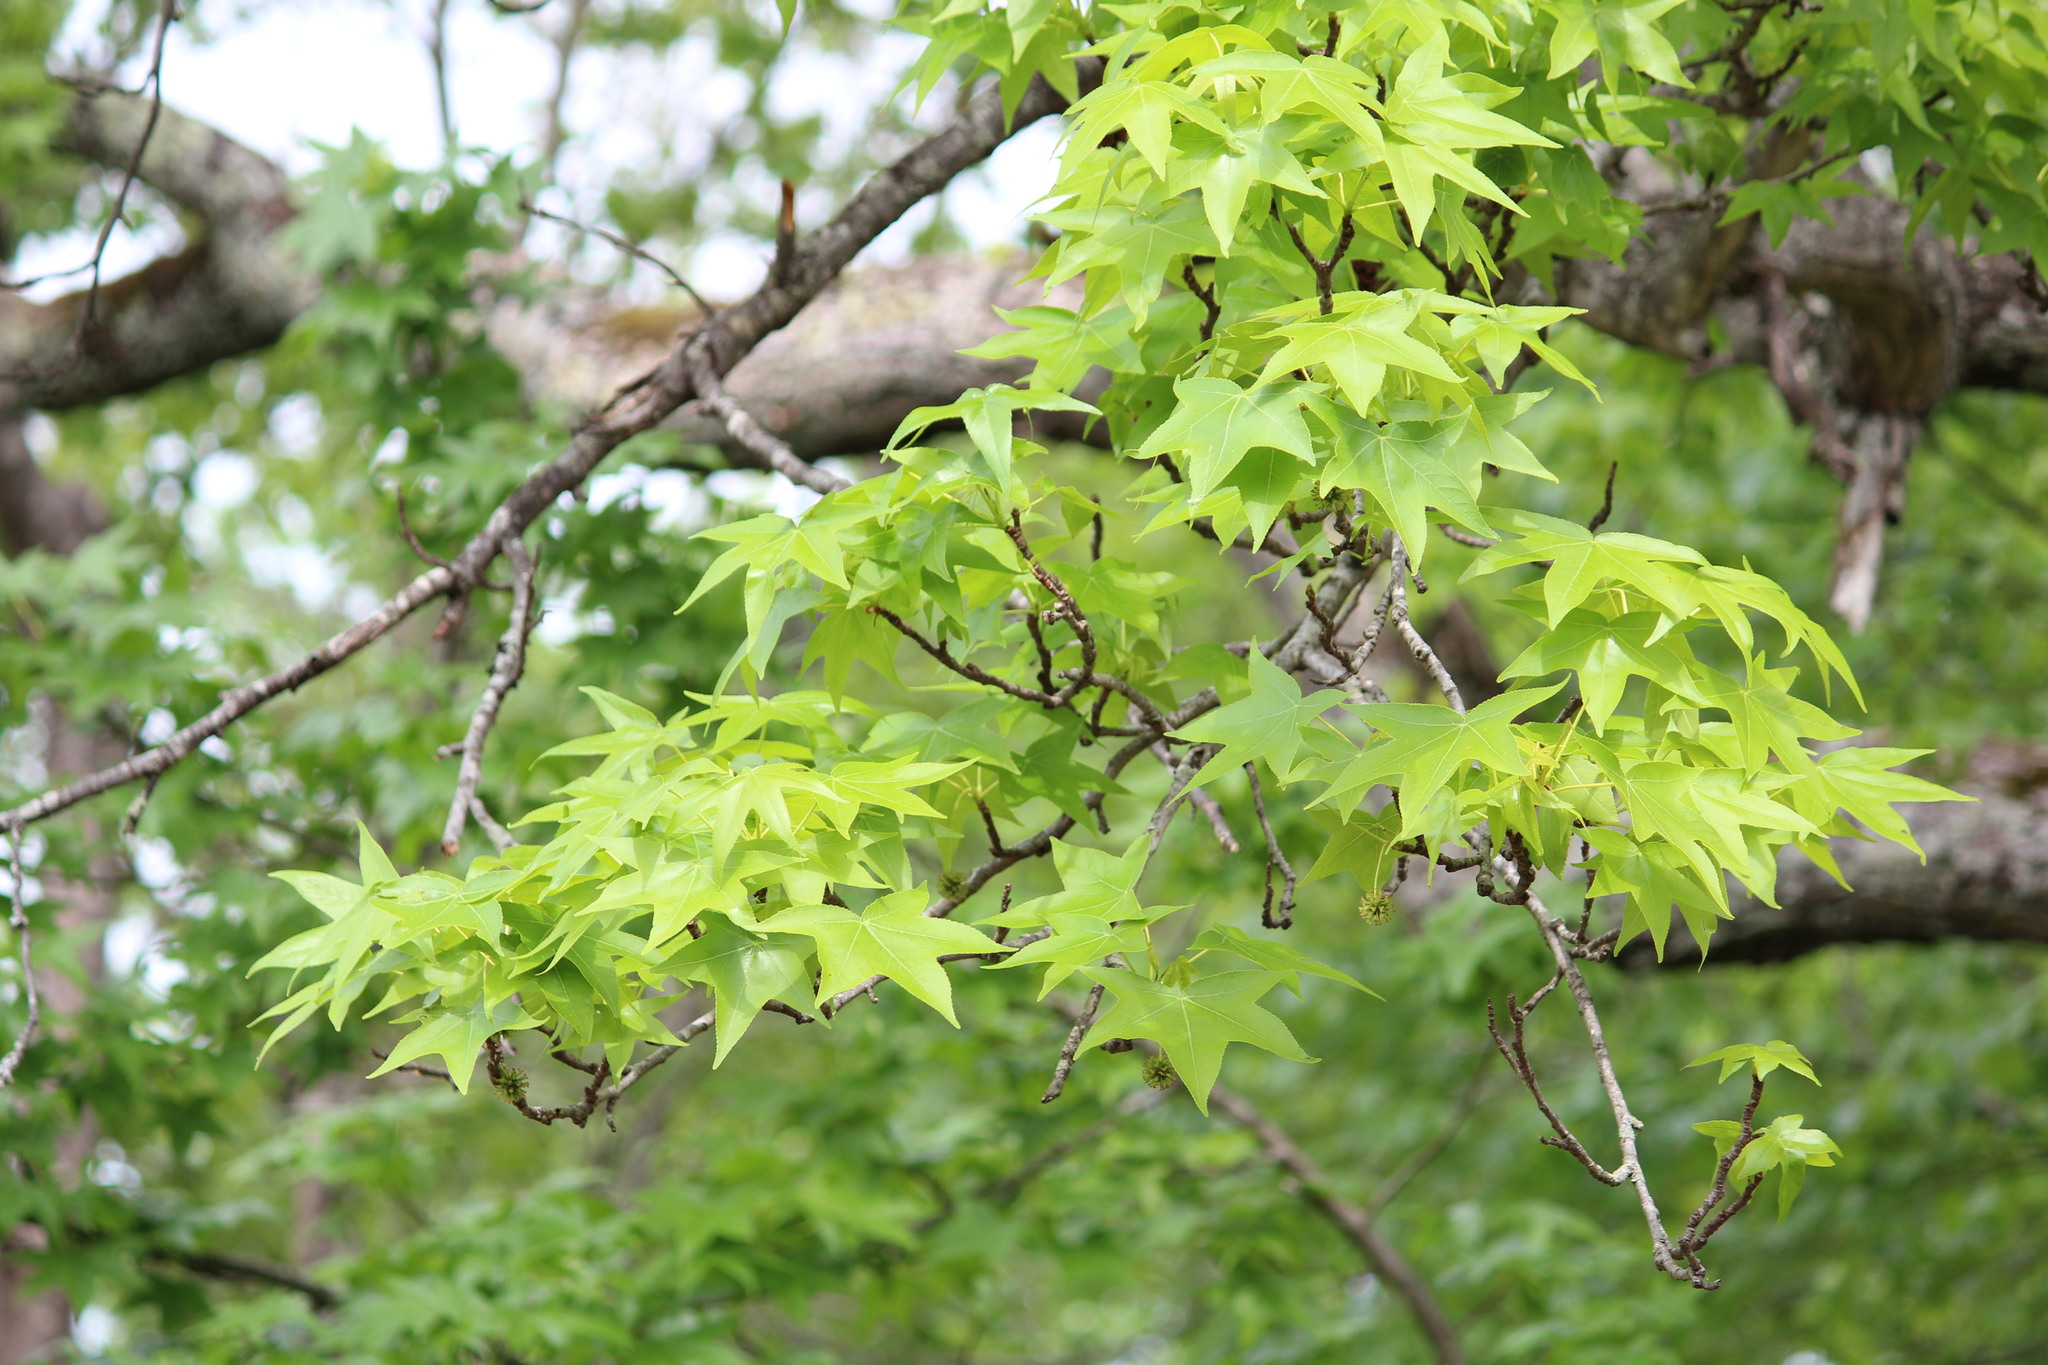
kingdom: Plantae
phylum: Tracheophyta
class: Magnoliopsida
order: Saxifragales
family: Altingiaceae
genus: Liquidambar
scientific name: Liquidambar styraciflua
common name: Sweet gum
